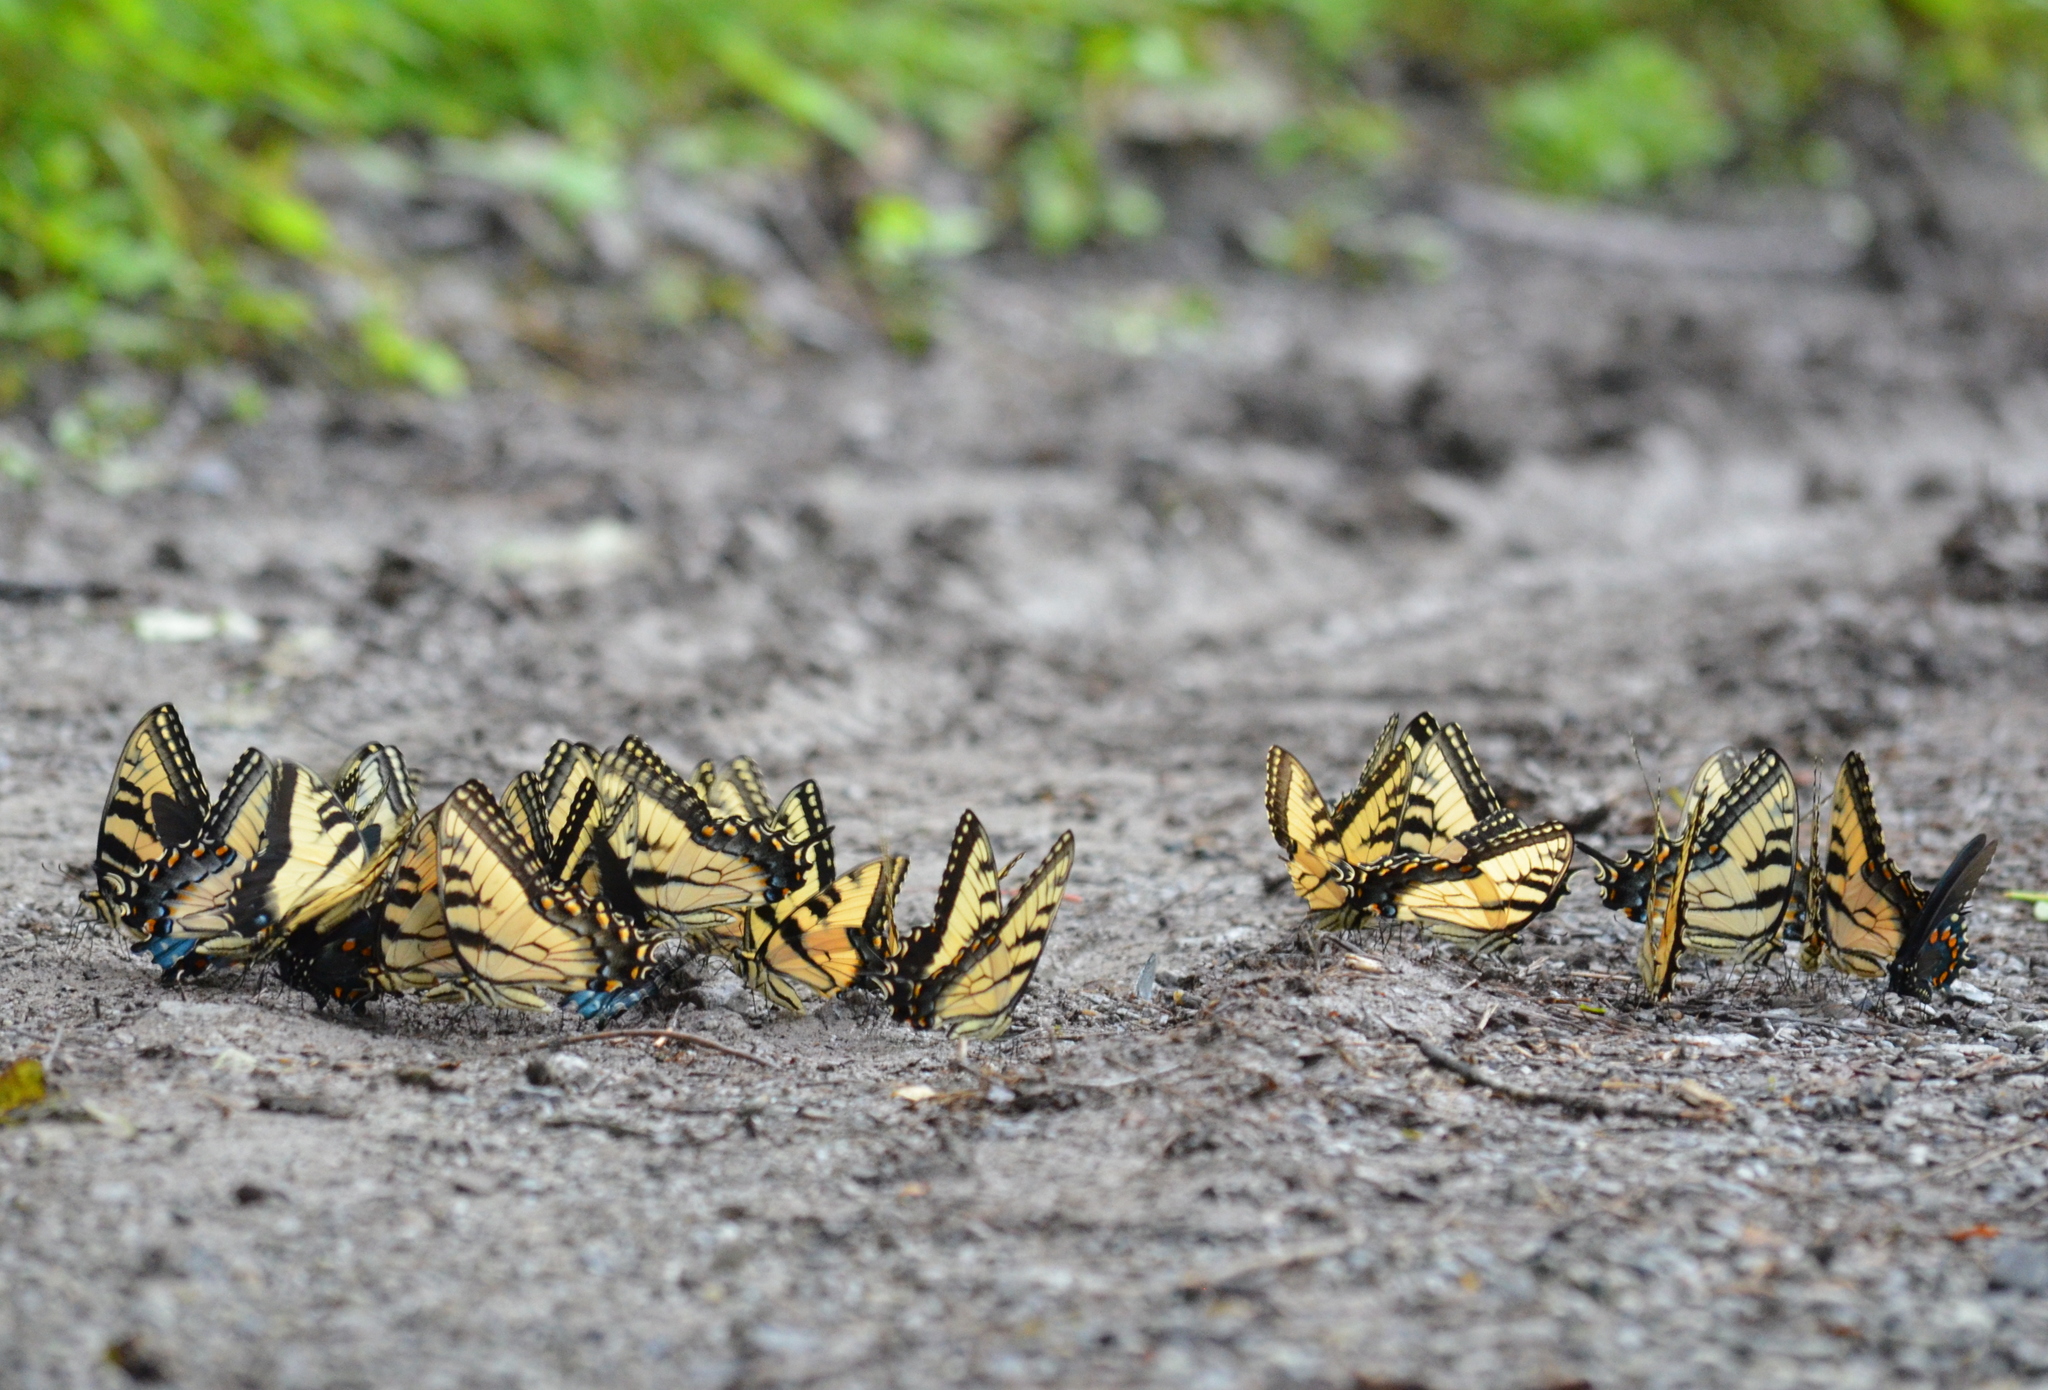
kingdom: Animalia
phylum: Arthropoda
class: Insecta
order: Lepidoptera
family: Papilionidae
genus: Papilio
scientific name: Papilio glaucus
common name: Tiger swallowtail
